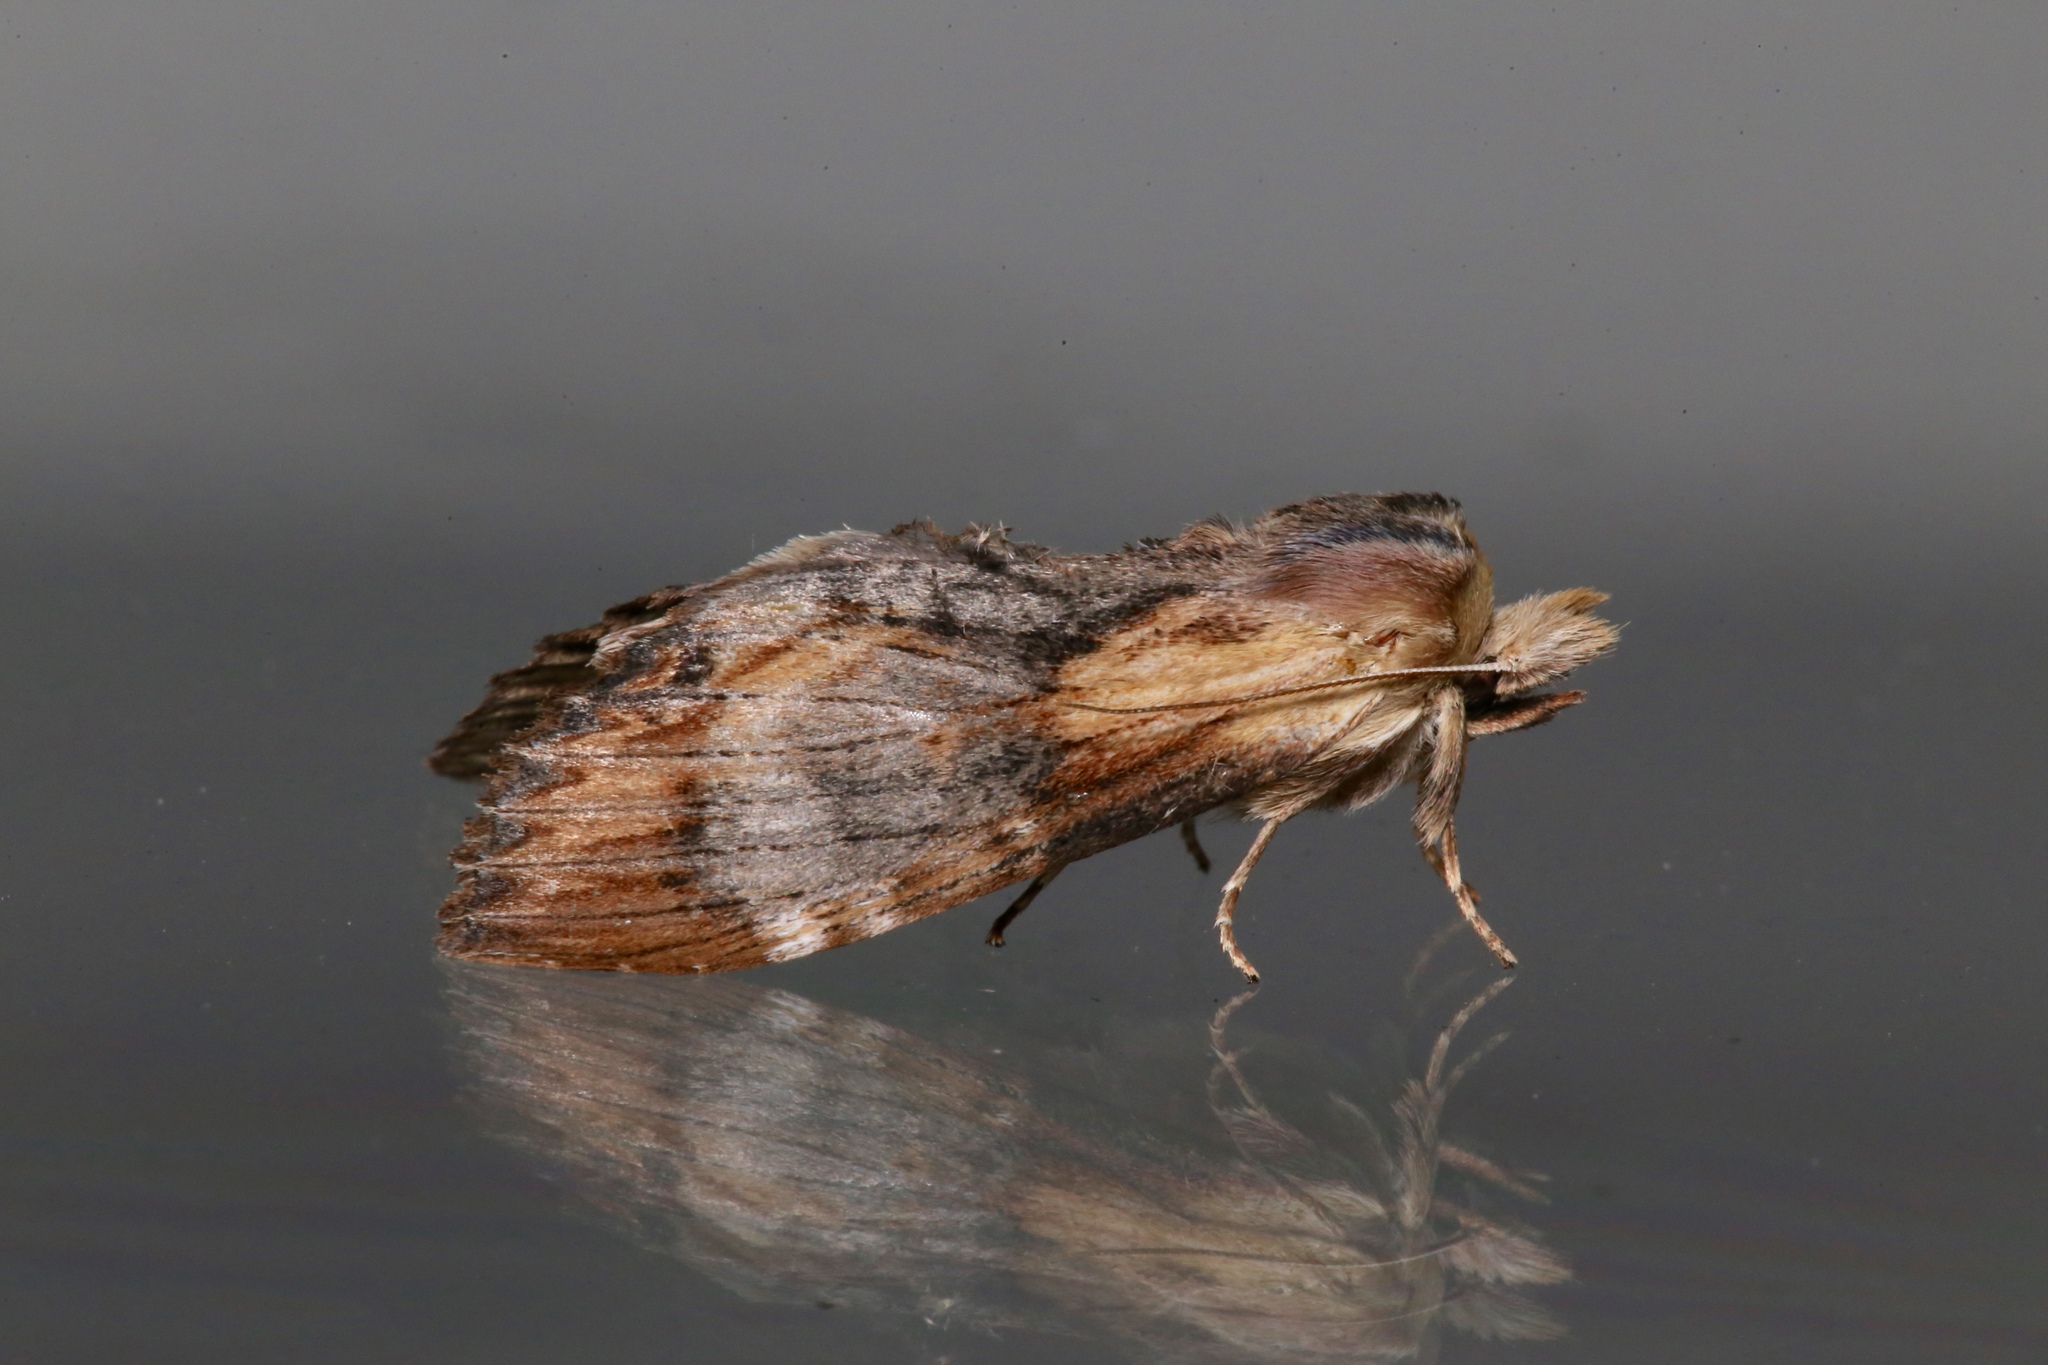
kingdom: Animalia
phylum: Arthropoda
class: Insecta
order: Lepidoptera
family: Notodontidae
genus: Dasylophia
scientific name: Dasylophia thyatiroides
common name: Gray-patched prominent
